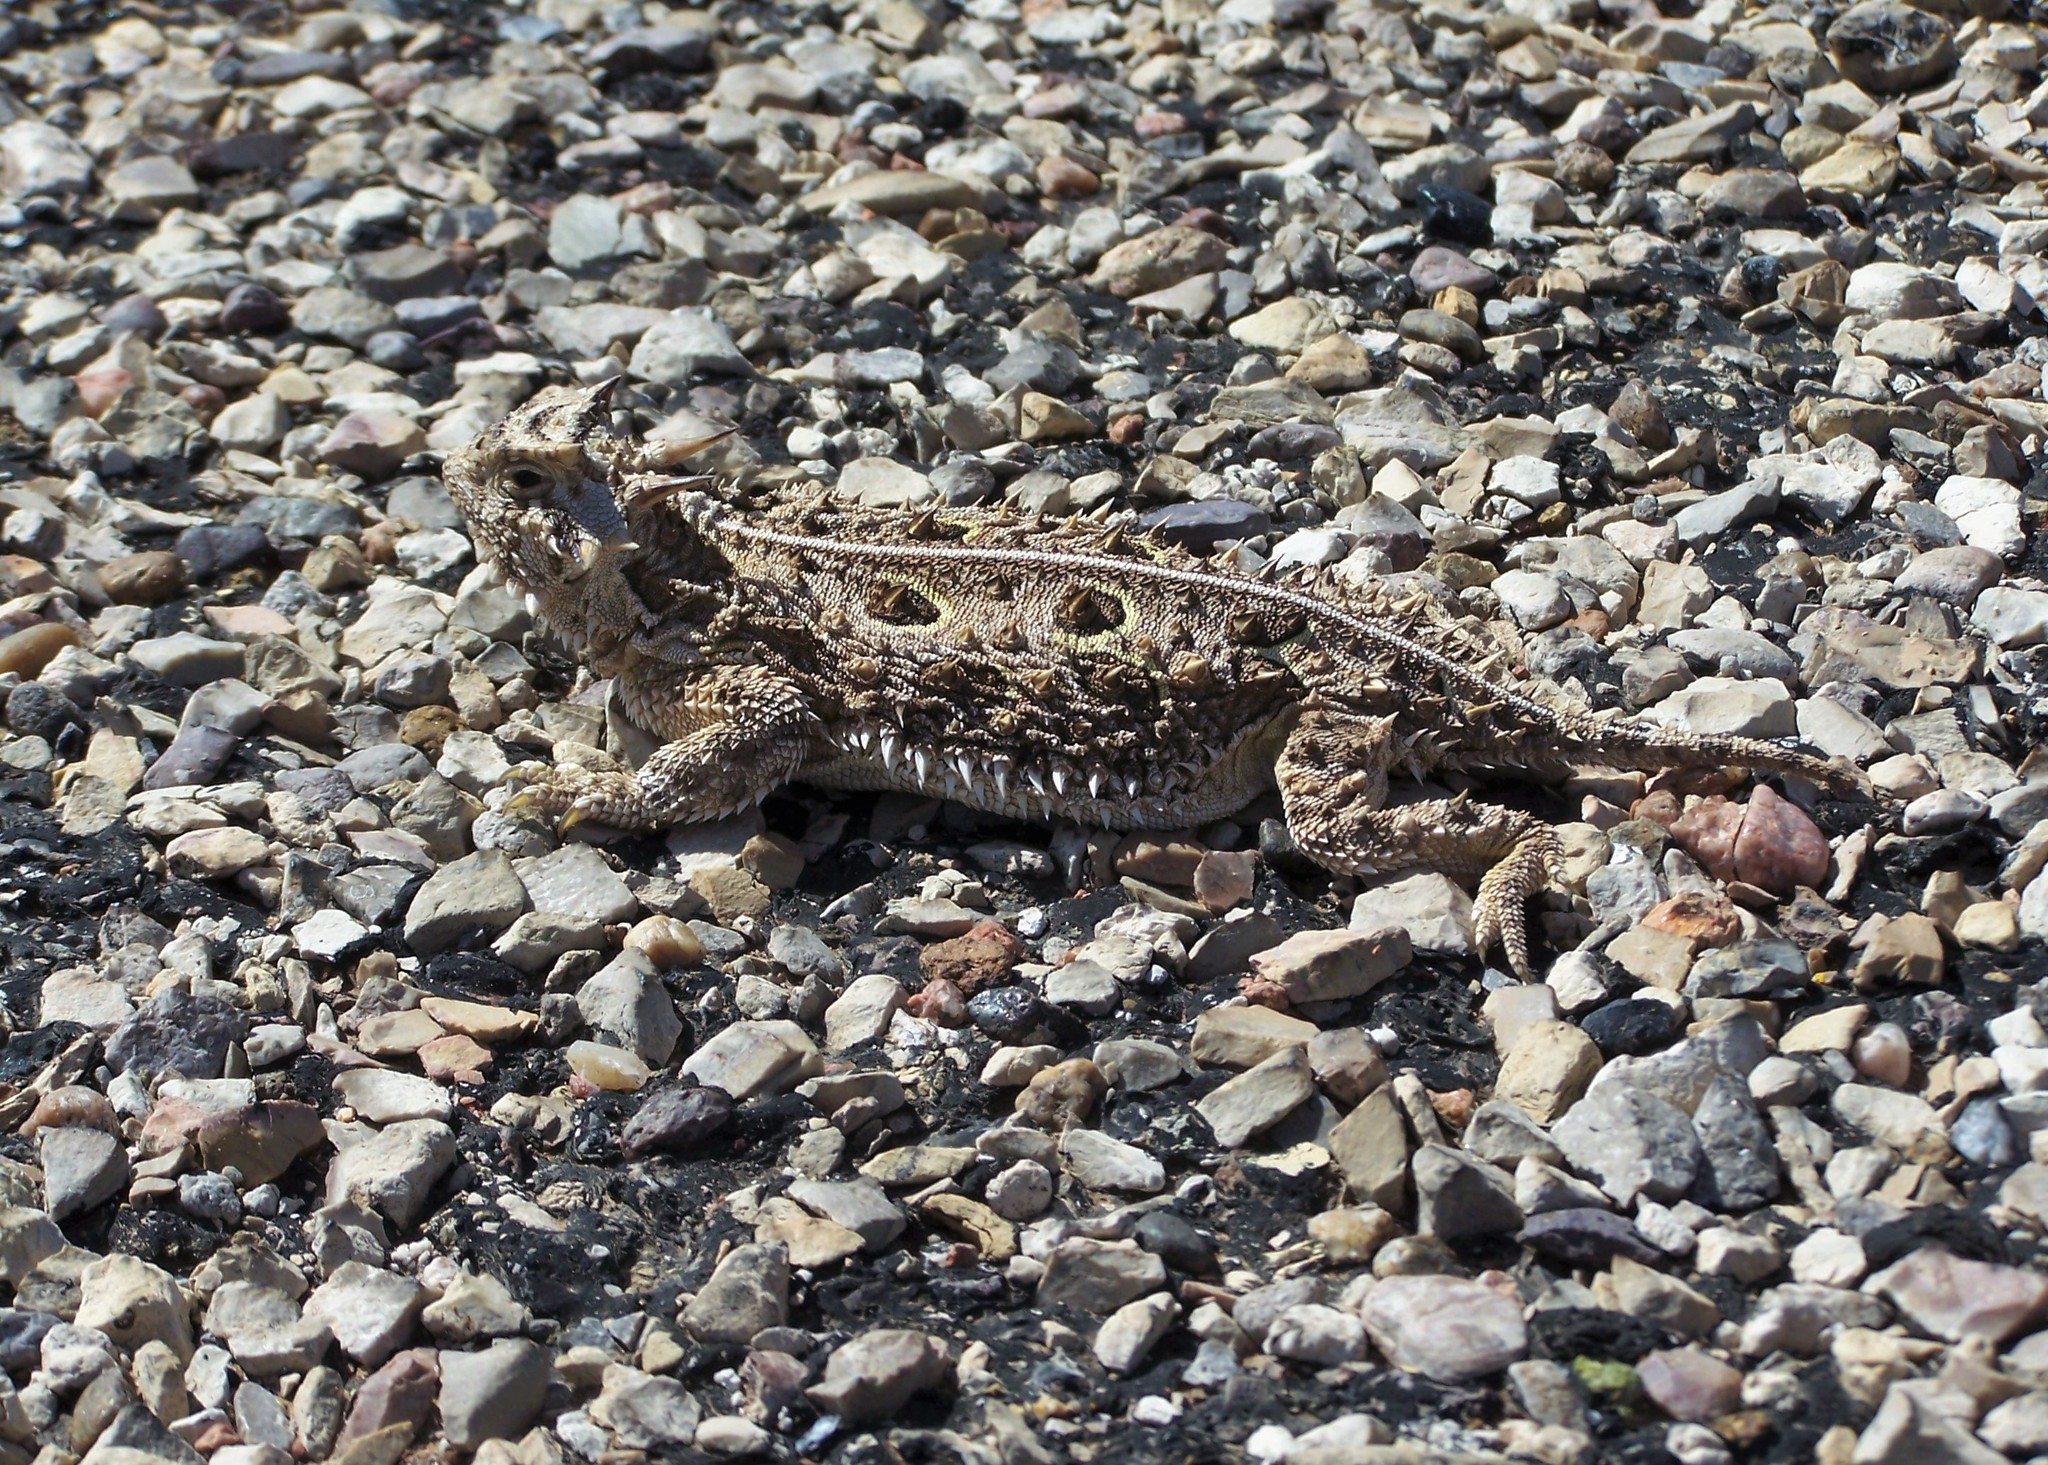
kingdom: Animalia
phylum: Chordata
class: Squamata
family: Phrynosomatidae
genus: Phrynosoma
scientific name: Phrynosoma cornutum
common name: Texas horned lizard
